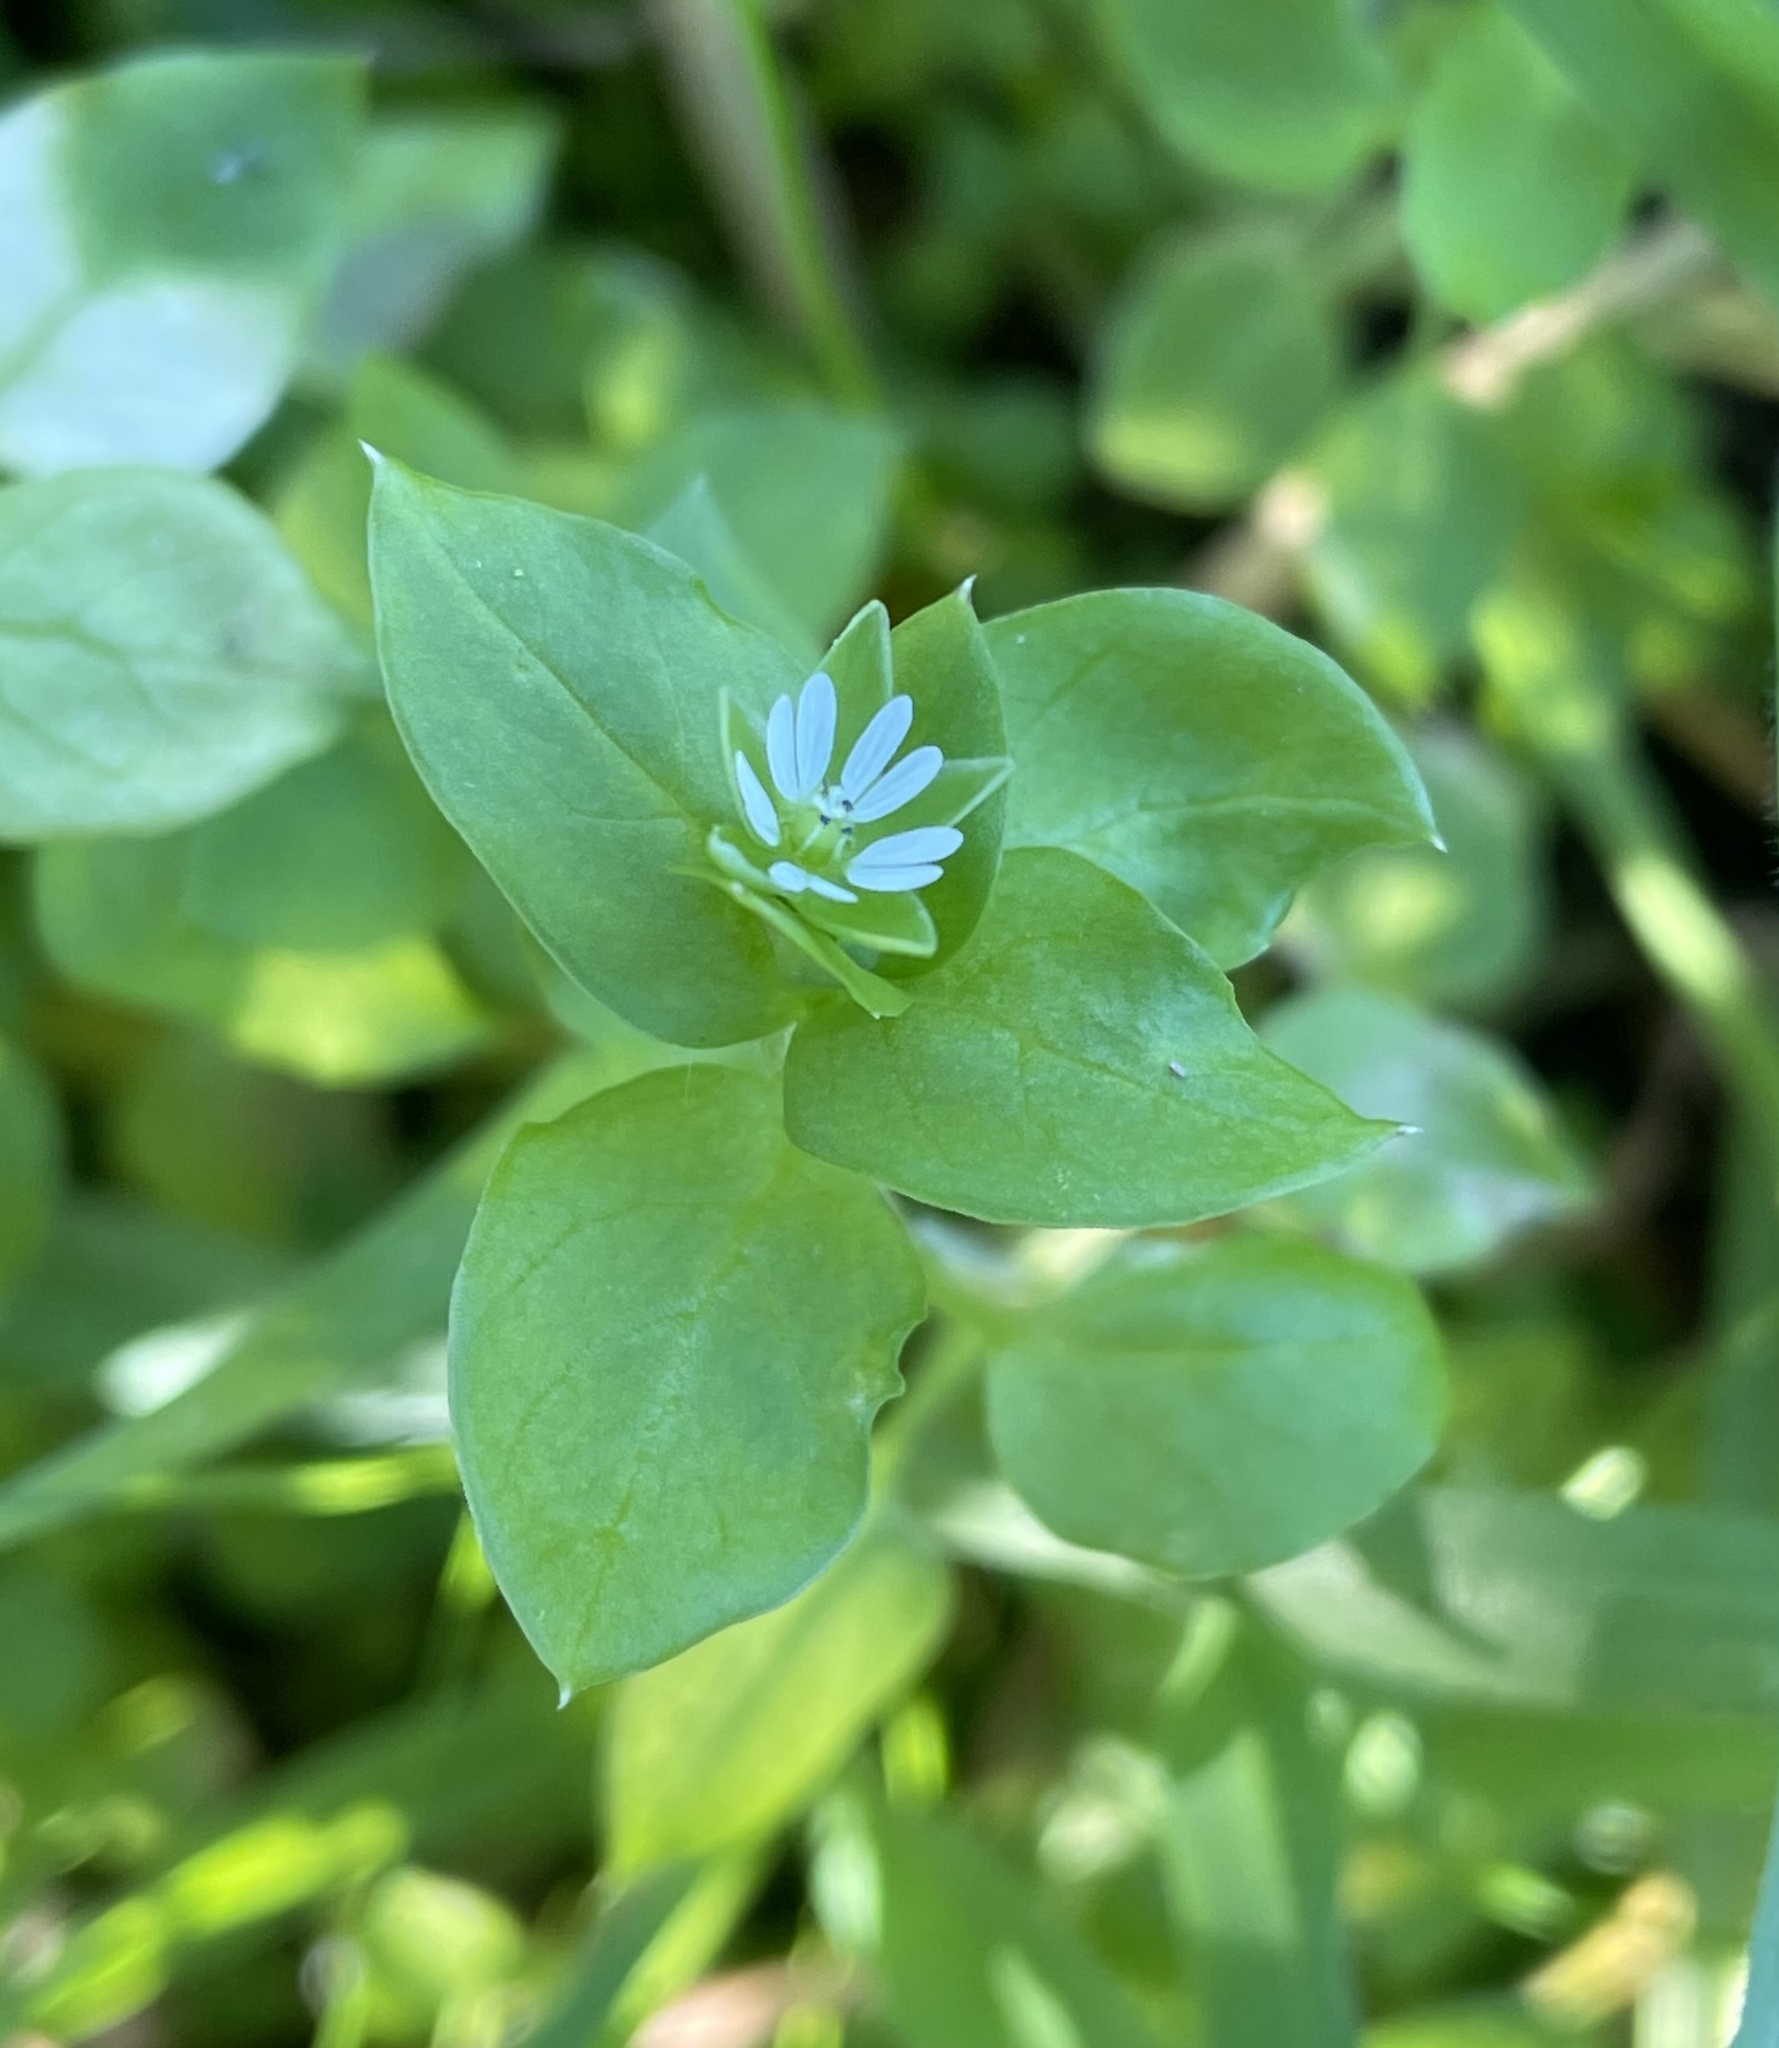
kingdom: Plantae
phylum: Tracheophyta
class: Magnoliopsida
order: Caryophyllales
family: Caryophyllaceae
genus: Stellaria
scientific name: Stellaria media
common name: Common chickweed
